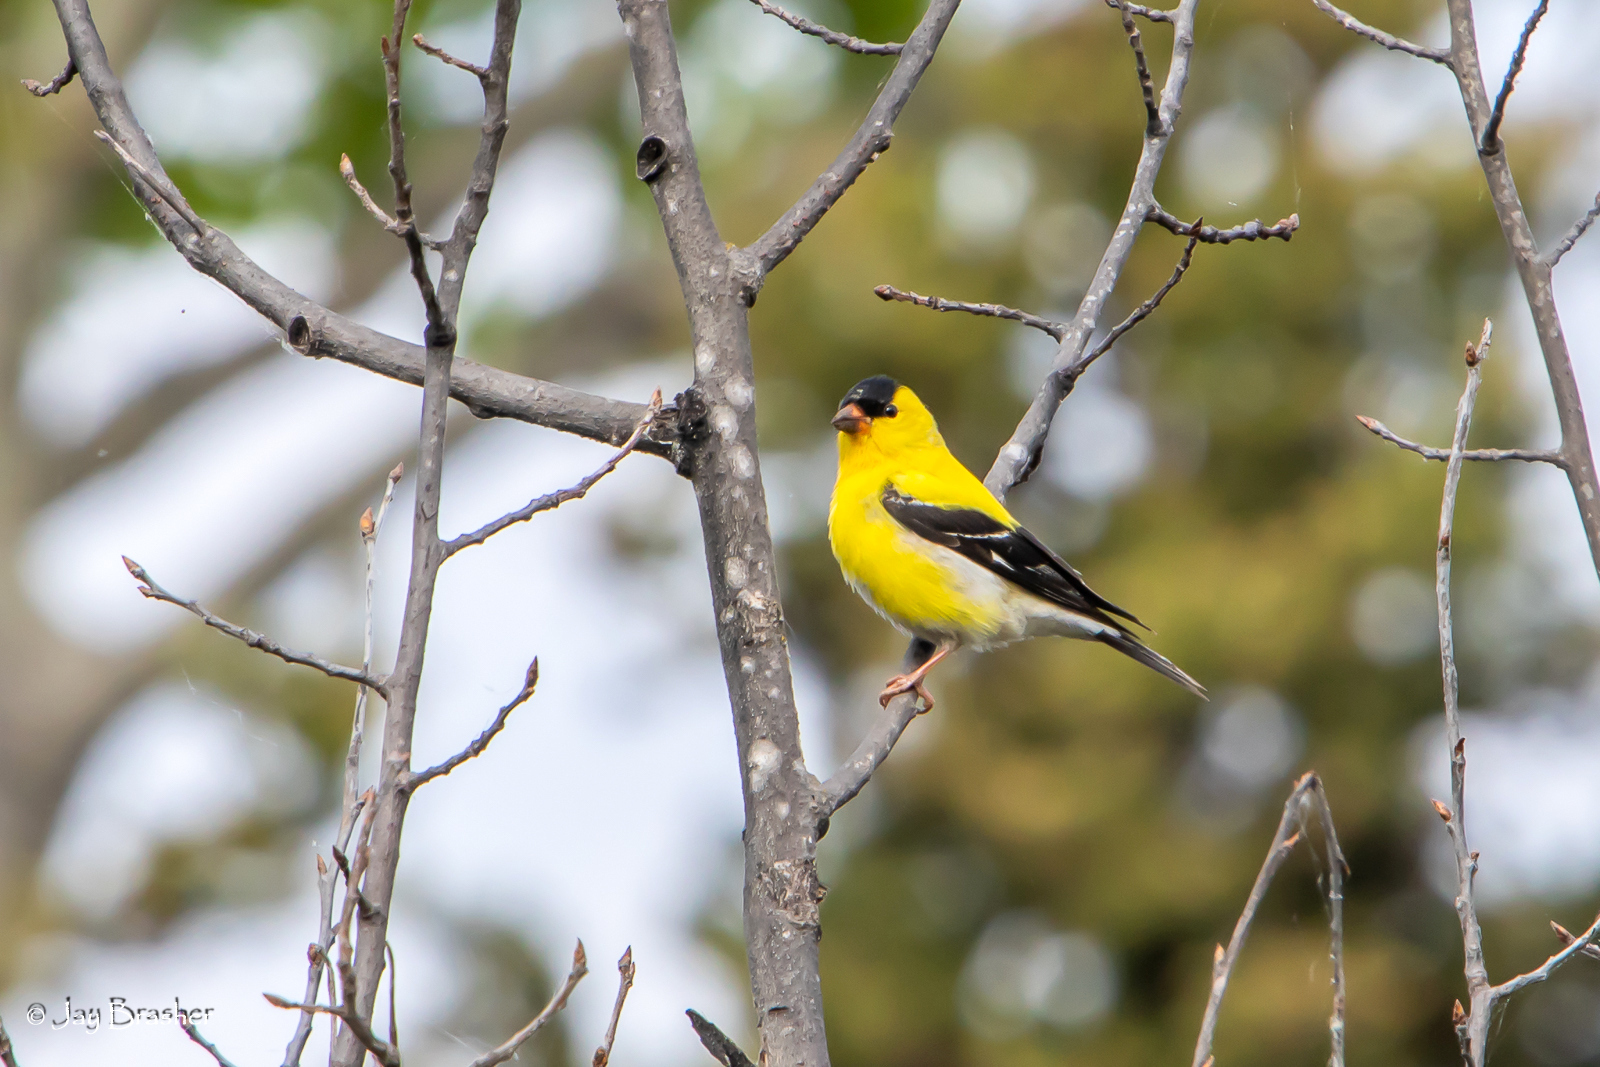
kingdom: Animalia
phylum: Chordata
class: Aves
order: Passeriformes
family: Fringillidae
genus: Spinus
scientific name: Spinus tristis
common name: American goldfinch
